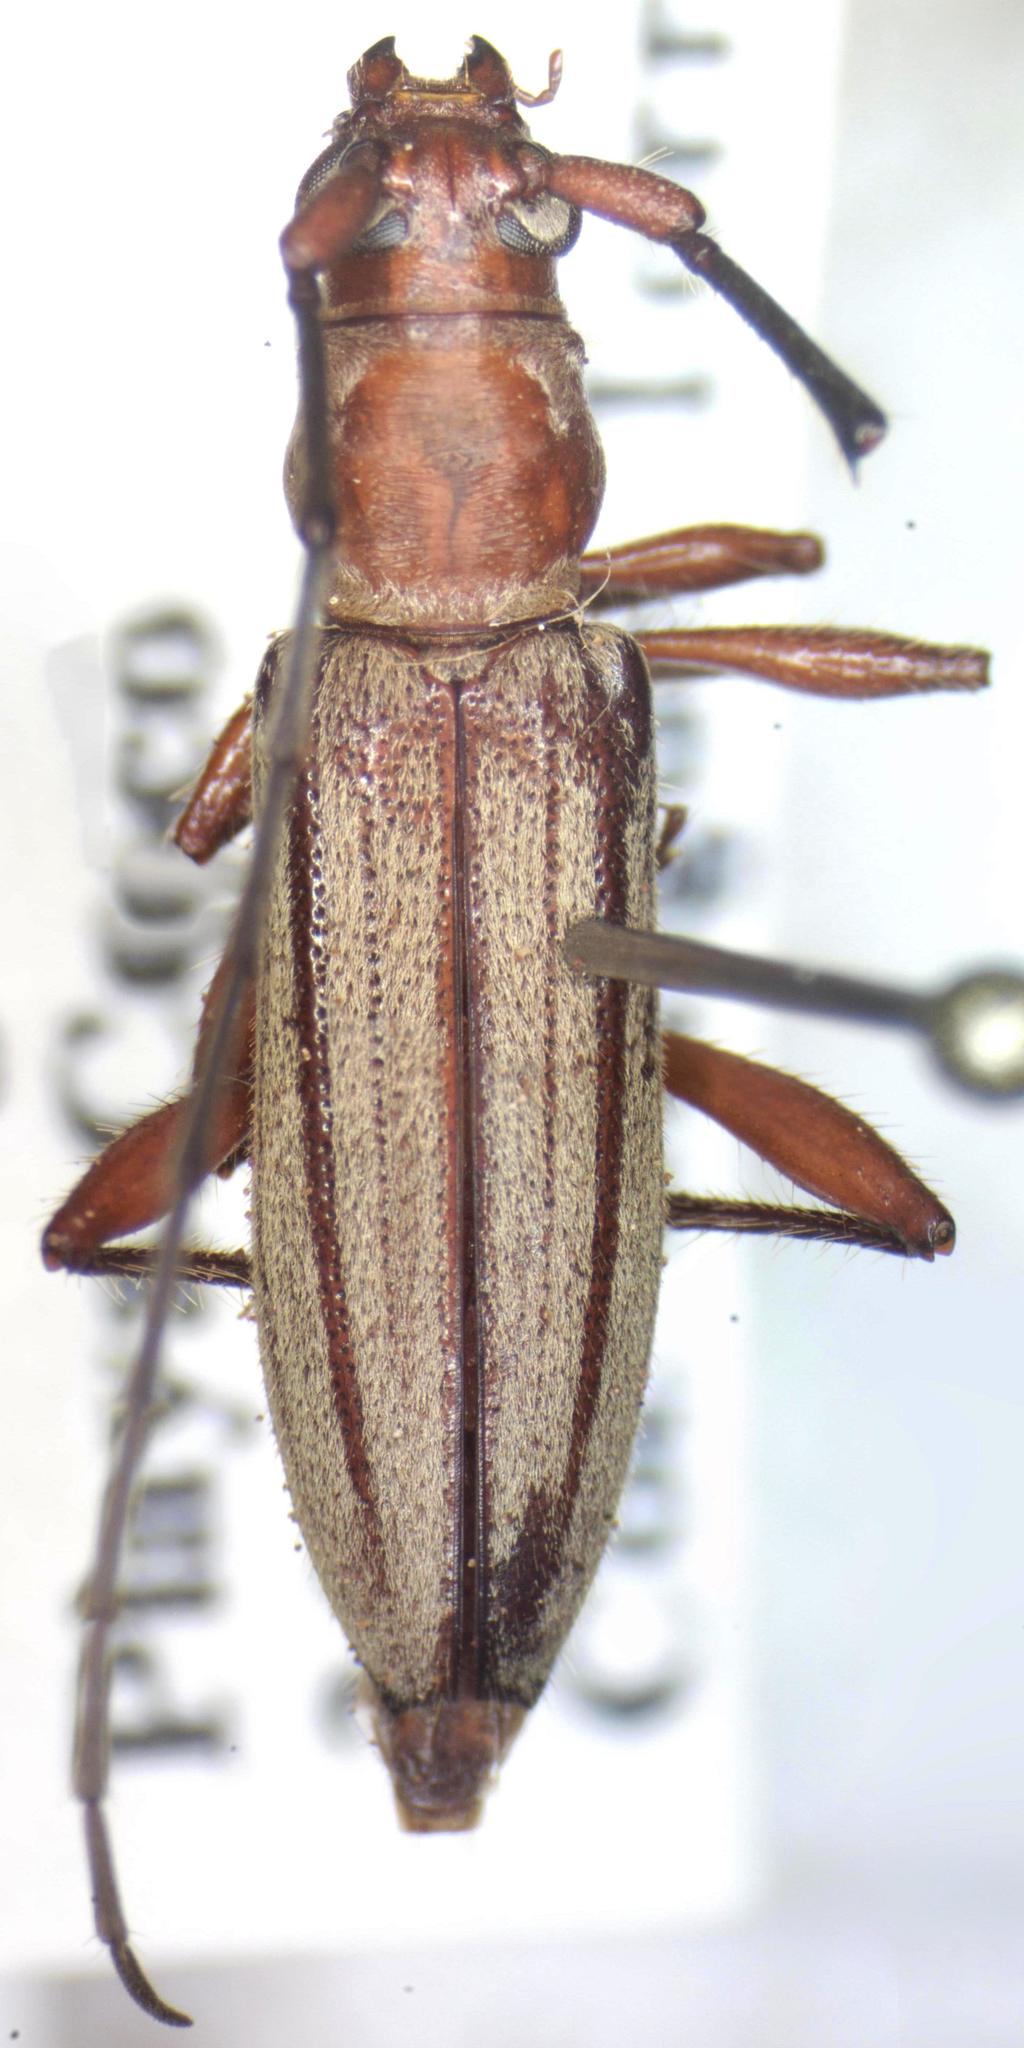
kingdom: Animalia
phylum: Arthropoda
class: Insecta
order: Coleoptera
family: Cerambycidae
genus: Ironeus
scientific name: Ironeus pulcher
